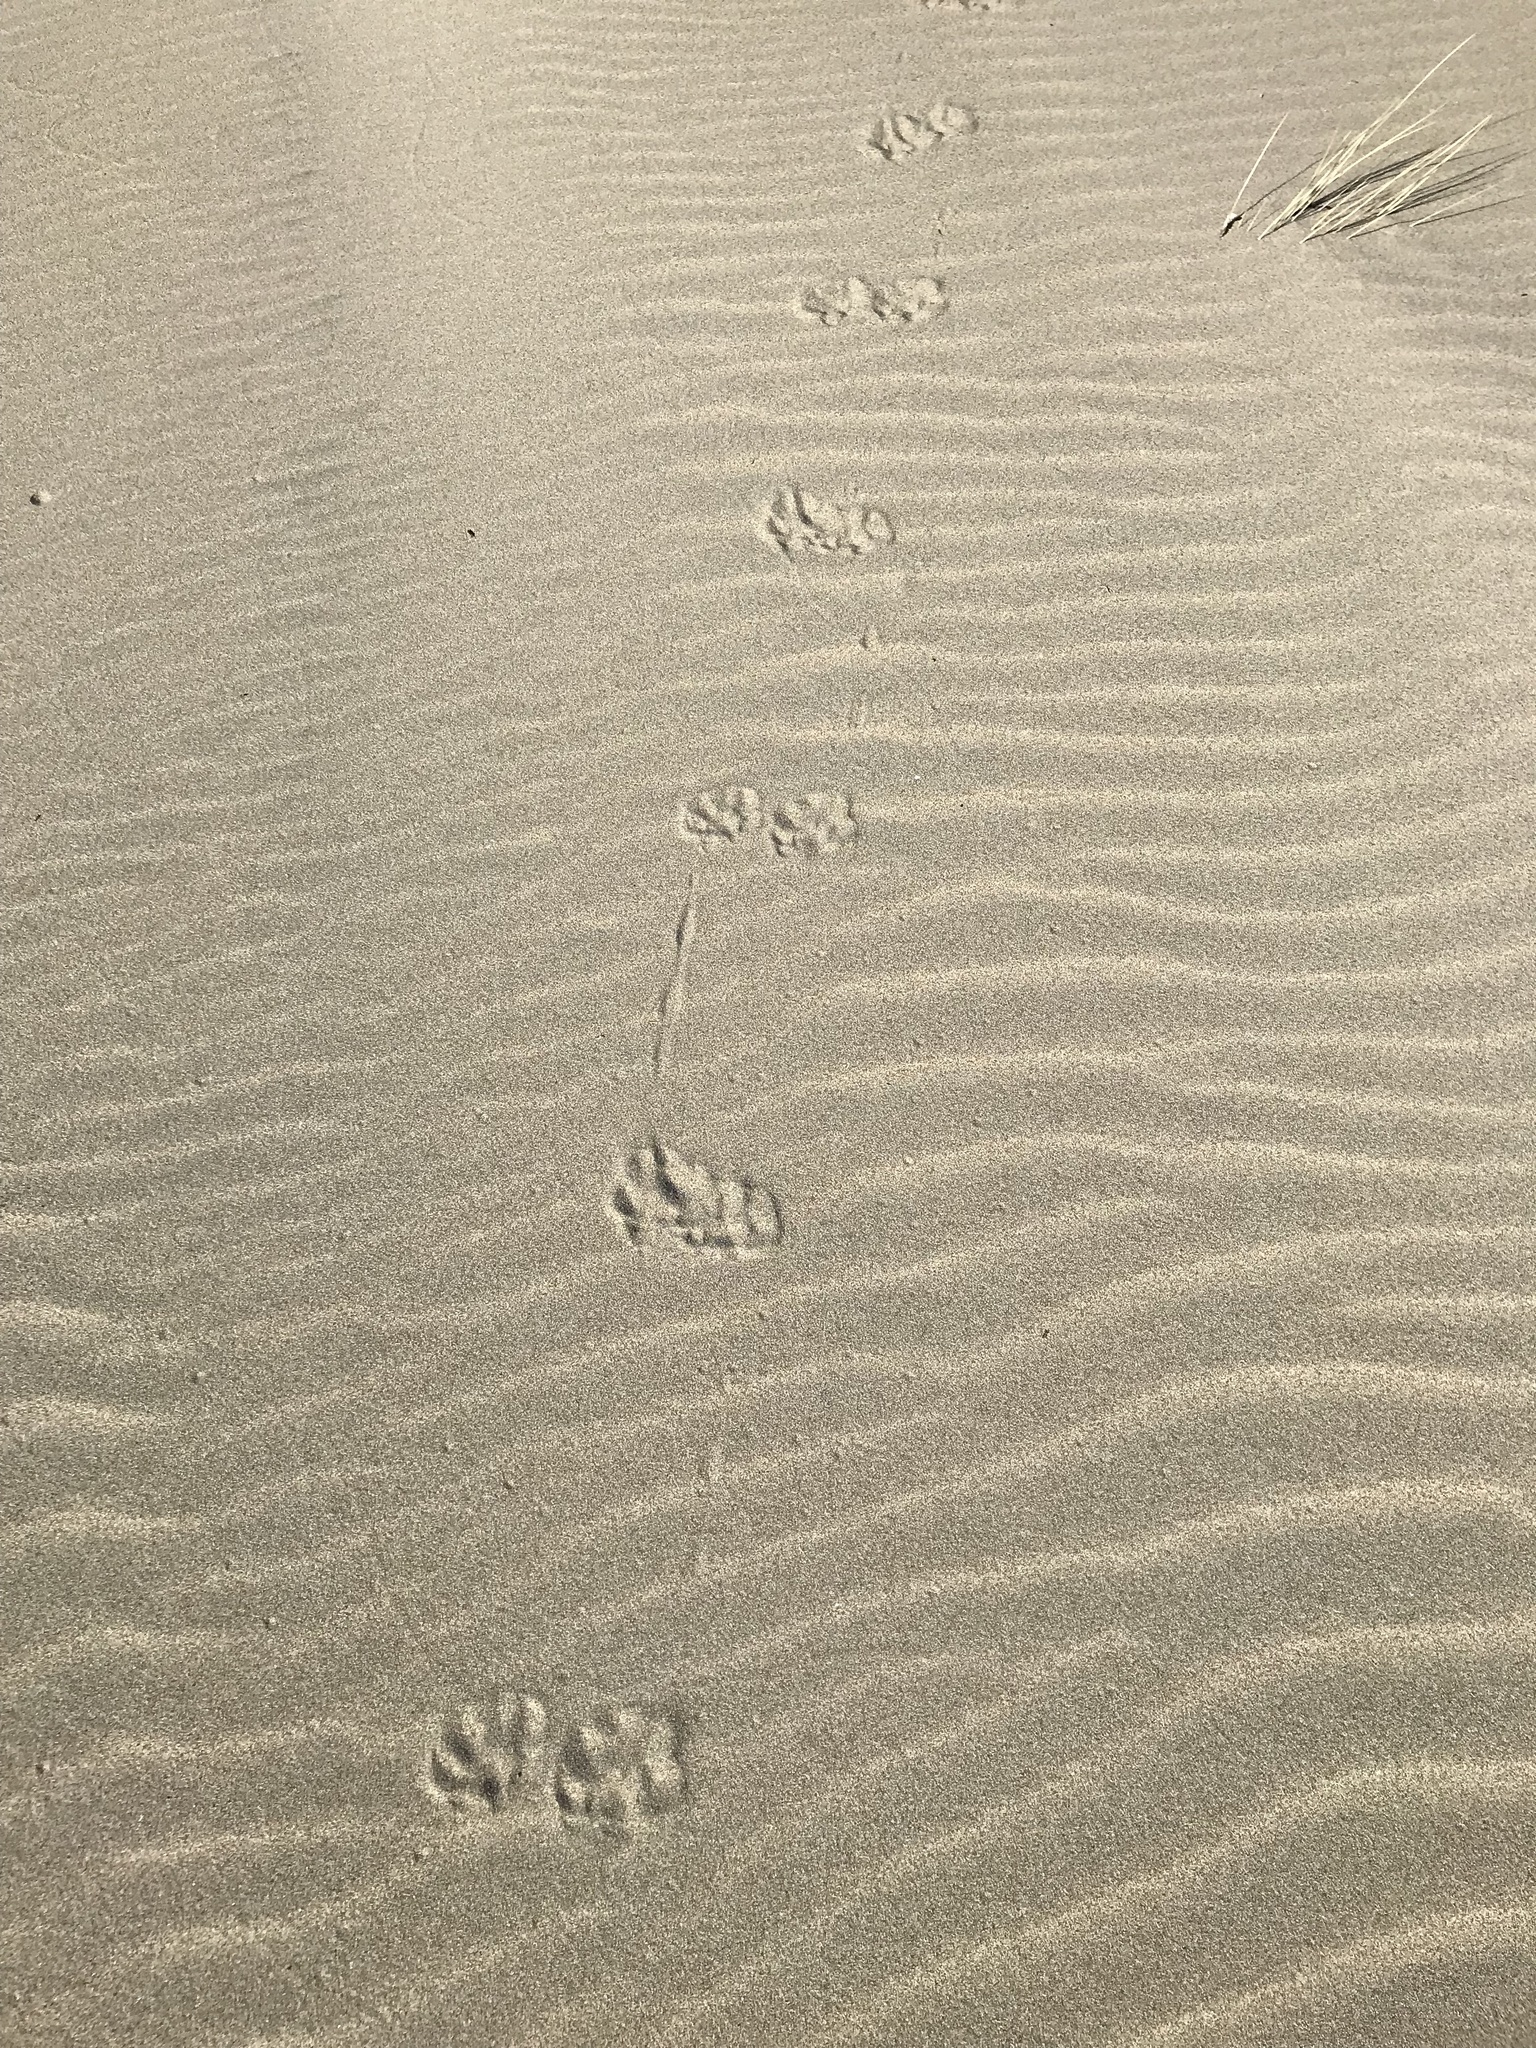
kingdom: Animalia
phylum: Chordata
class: Mammalia
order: Carnivora
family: Procyonidae
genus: Procyon
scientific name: Procyon lotor
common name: Raccoon
